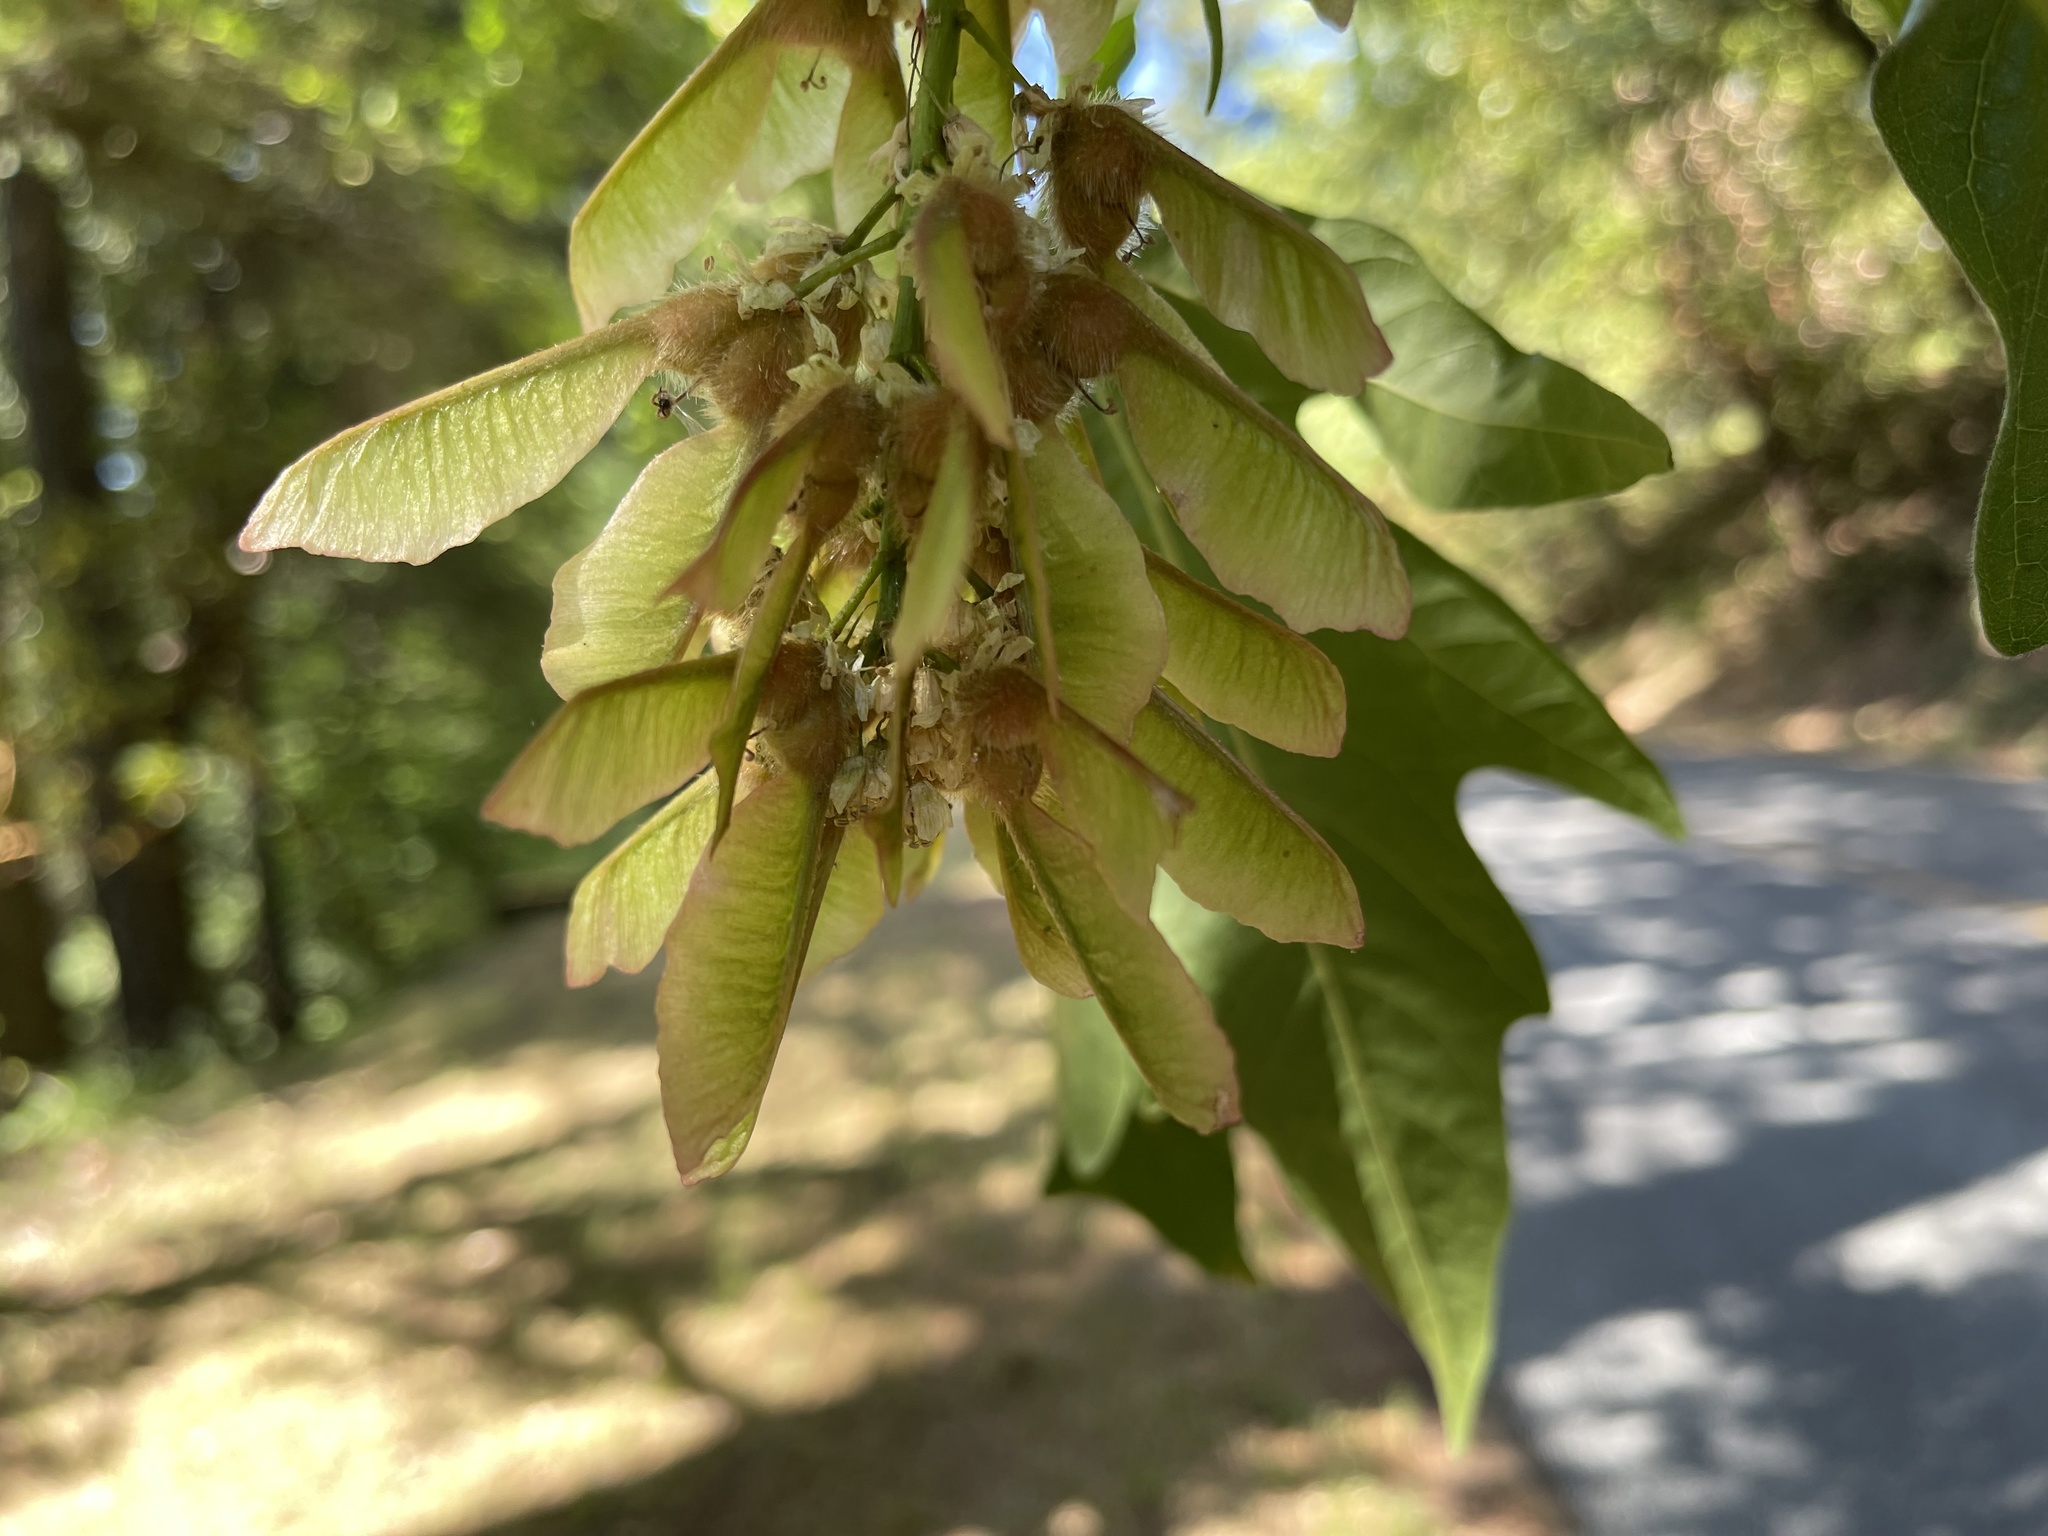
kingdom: Plantae
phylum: Tracheophyta
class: Magnoliopsida
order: Sapindales
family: Sapindaceae
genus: Acer
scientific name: Acer macrophyllum
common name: Oregon maple
